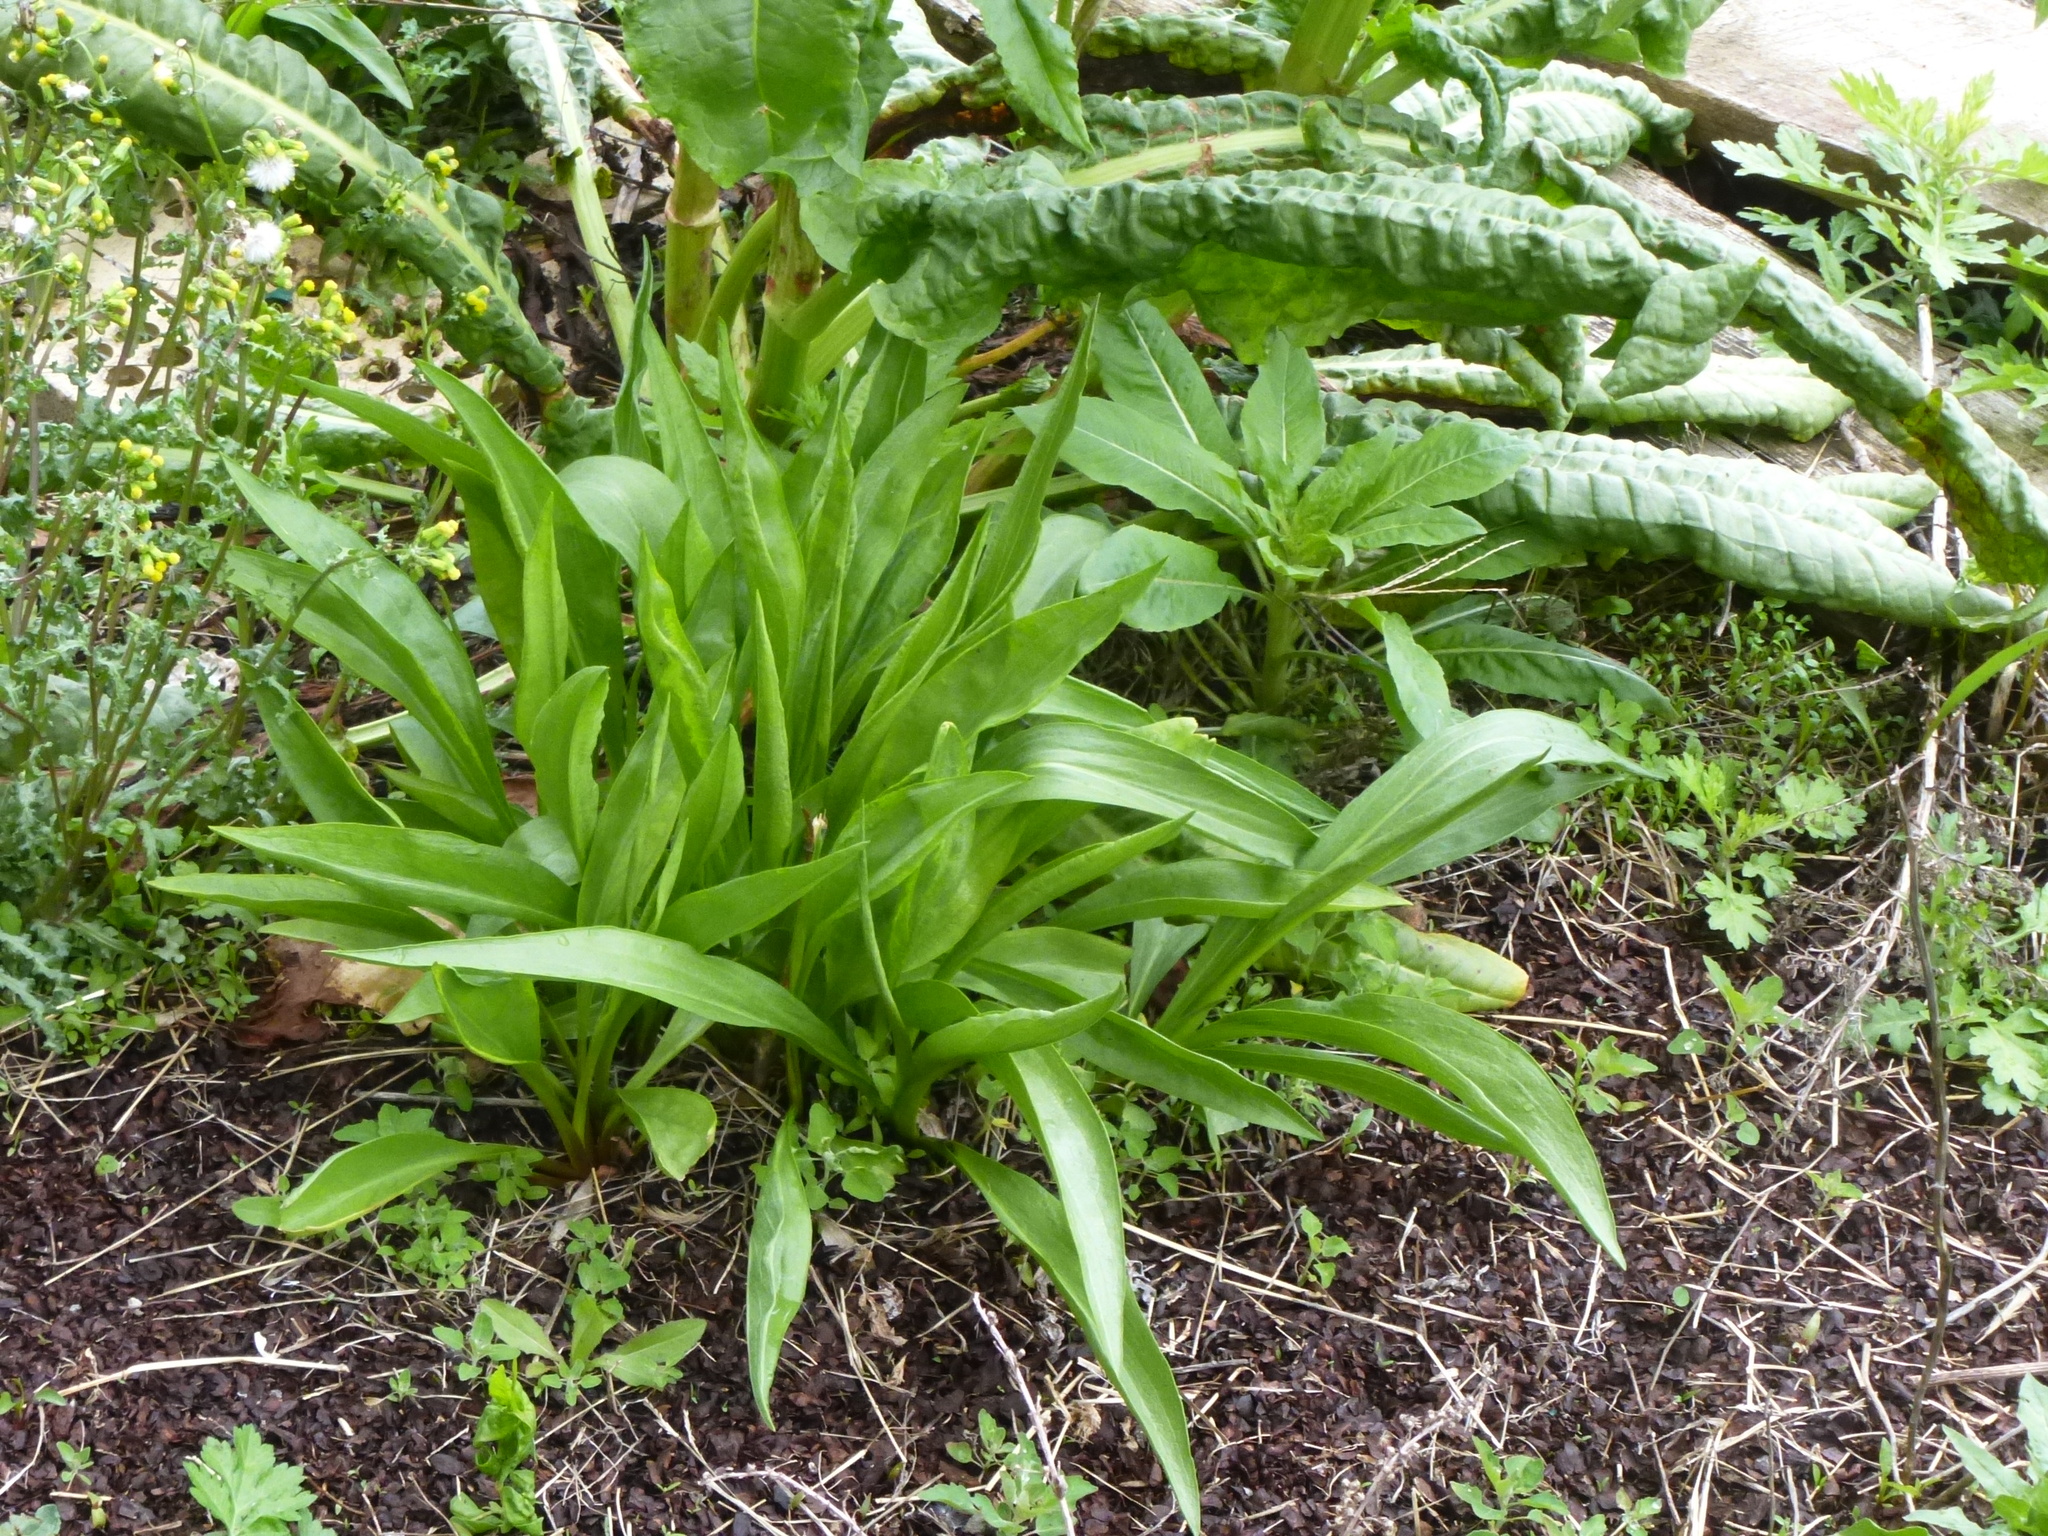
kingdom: Plantae
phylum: Tracheophyta
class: Magnoliopsida
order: Asterales
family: Asteraceae
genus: Solidago
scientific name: Solidago sempervirens
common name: Salt-marsh goldenrod
